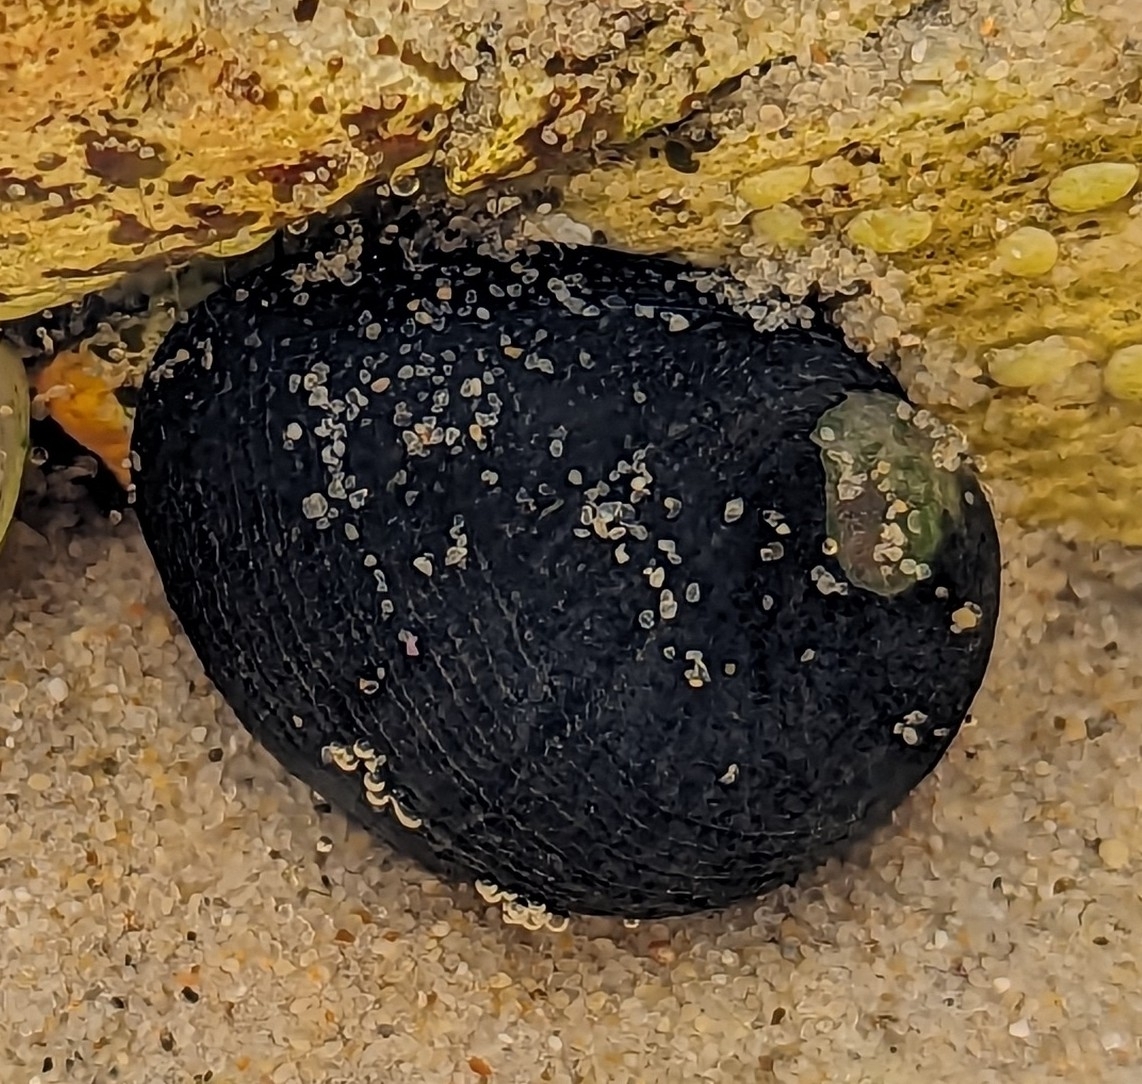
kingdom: Animalia
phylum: Mollusca
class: Gastropoda
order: Cycloneritida
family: Neritidae
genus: Nerita
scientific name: Nerita melanotragus
